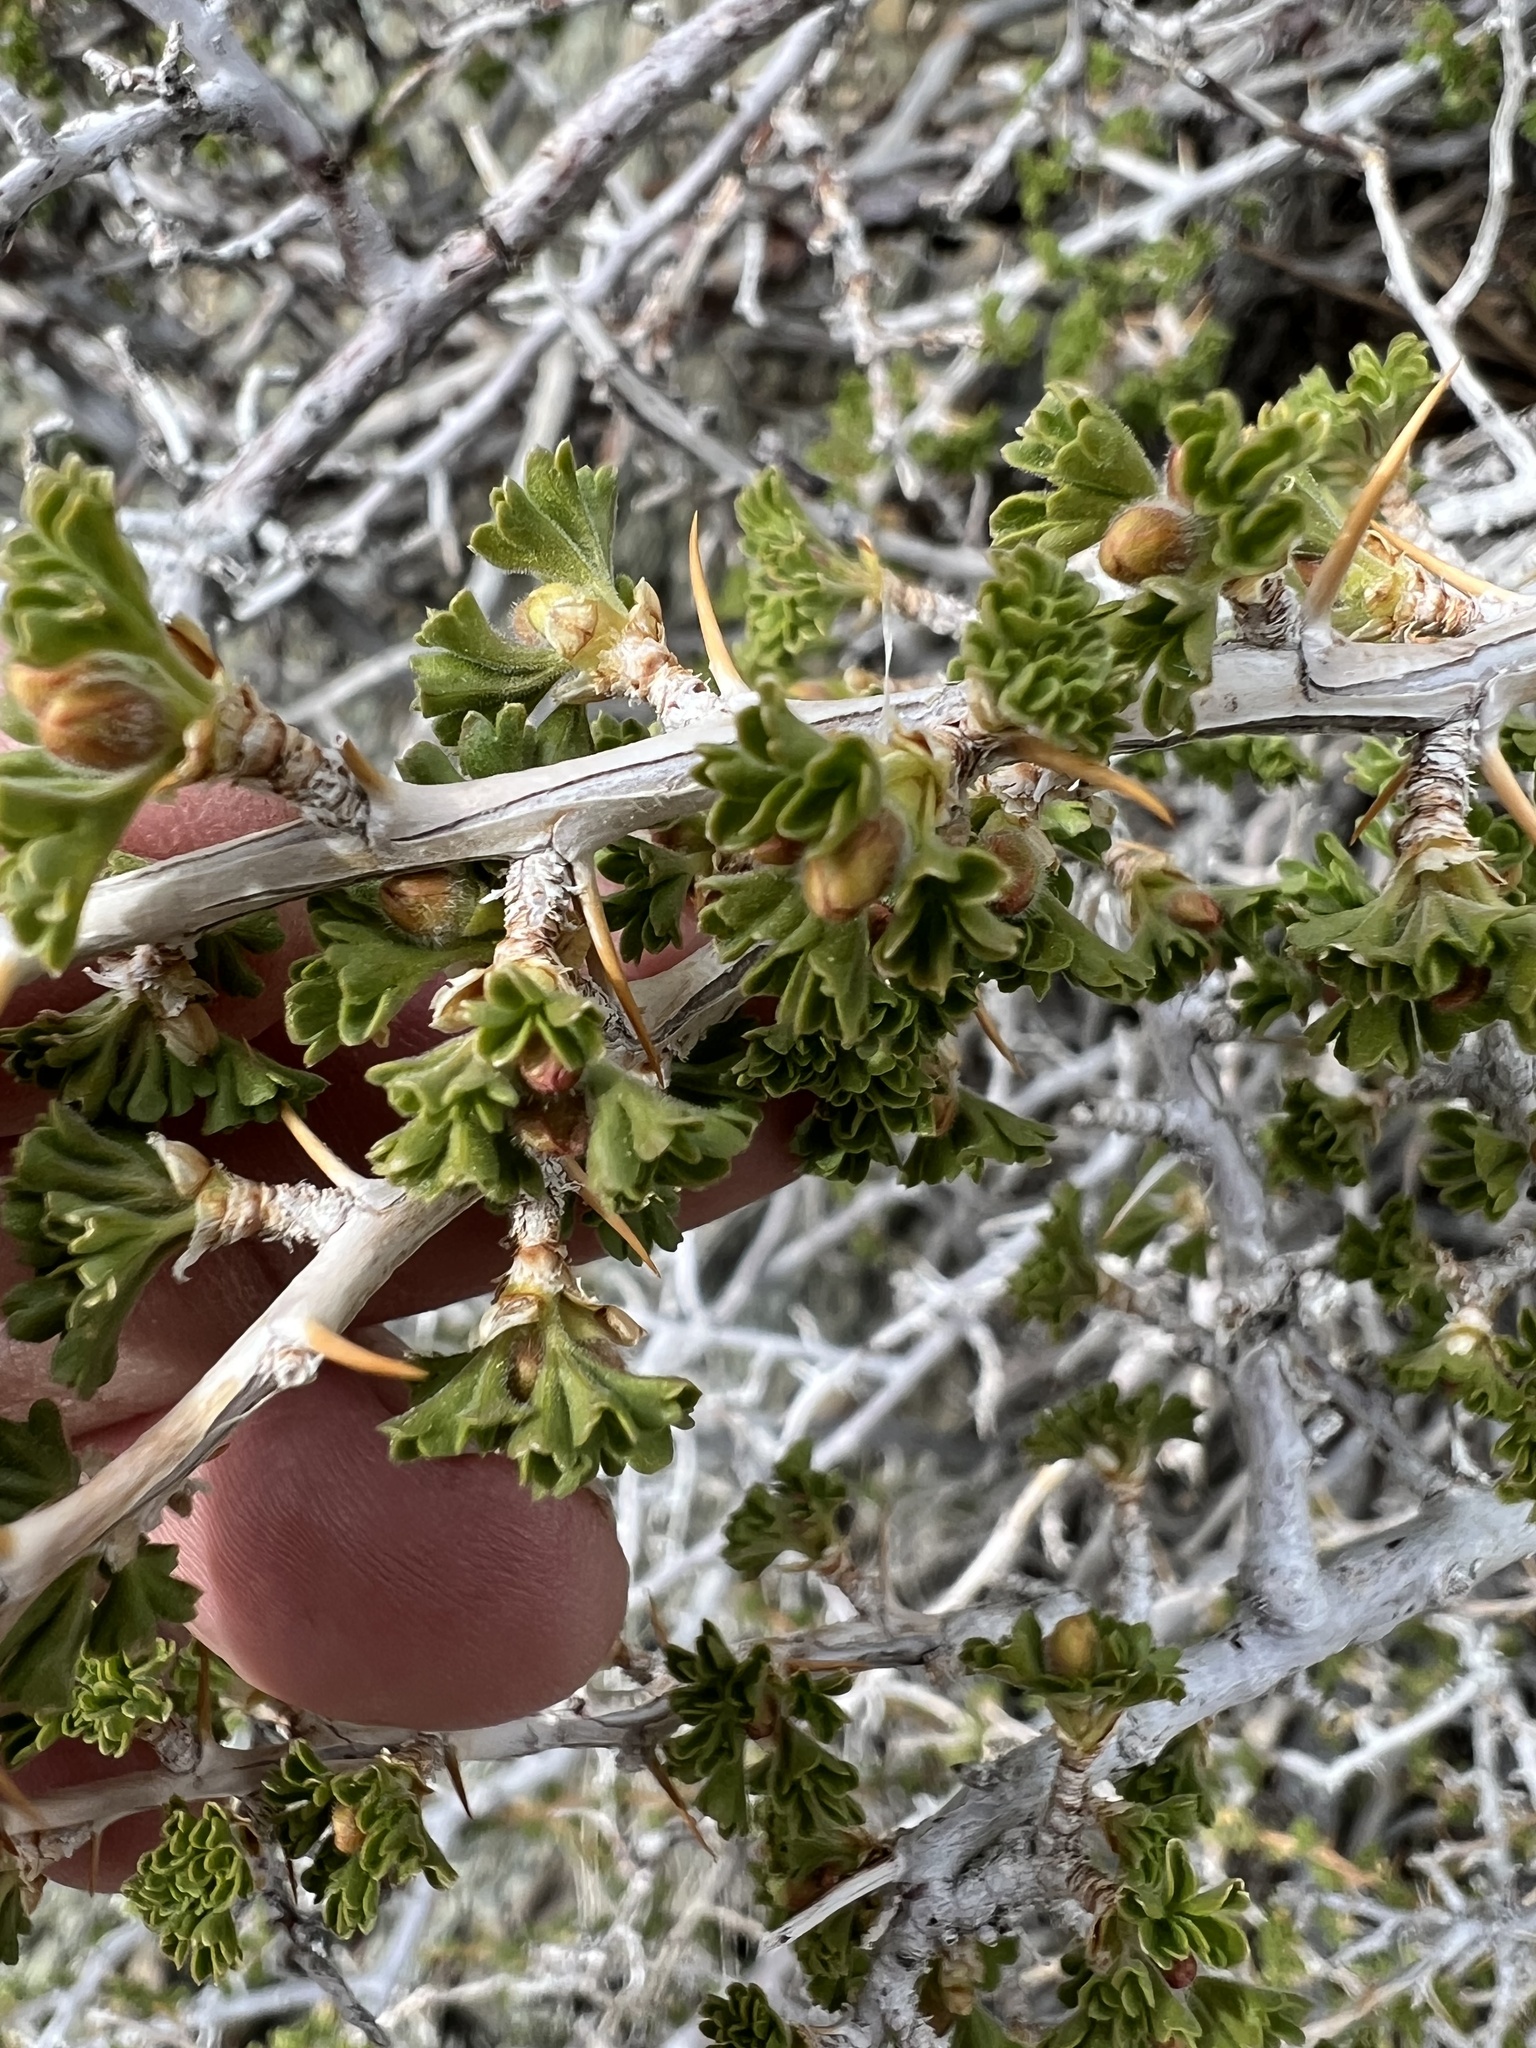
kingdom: Plantae
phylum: Tracheophyta
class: Magnoliopsida
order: Saxifragales
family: Grossulariaceae
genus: Ribes
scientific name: Ribes velutinum
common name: Desert gooseberry
